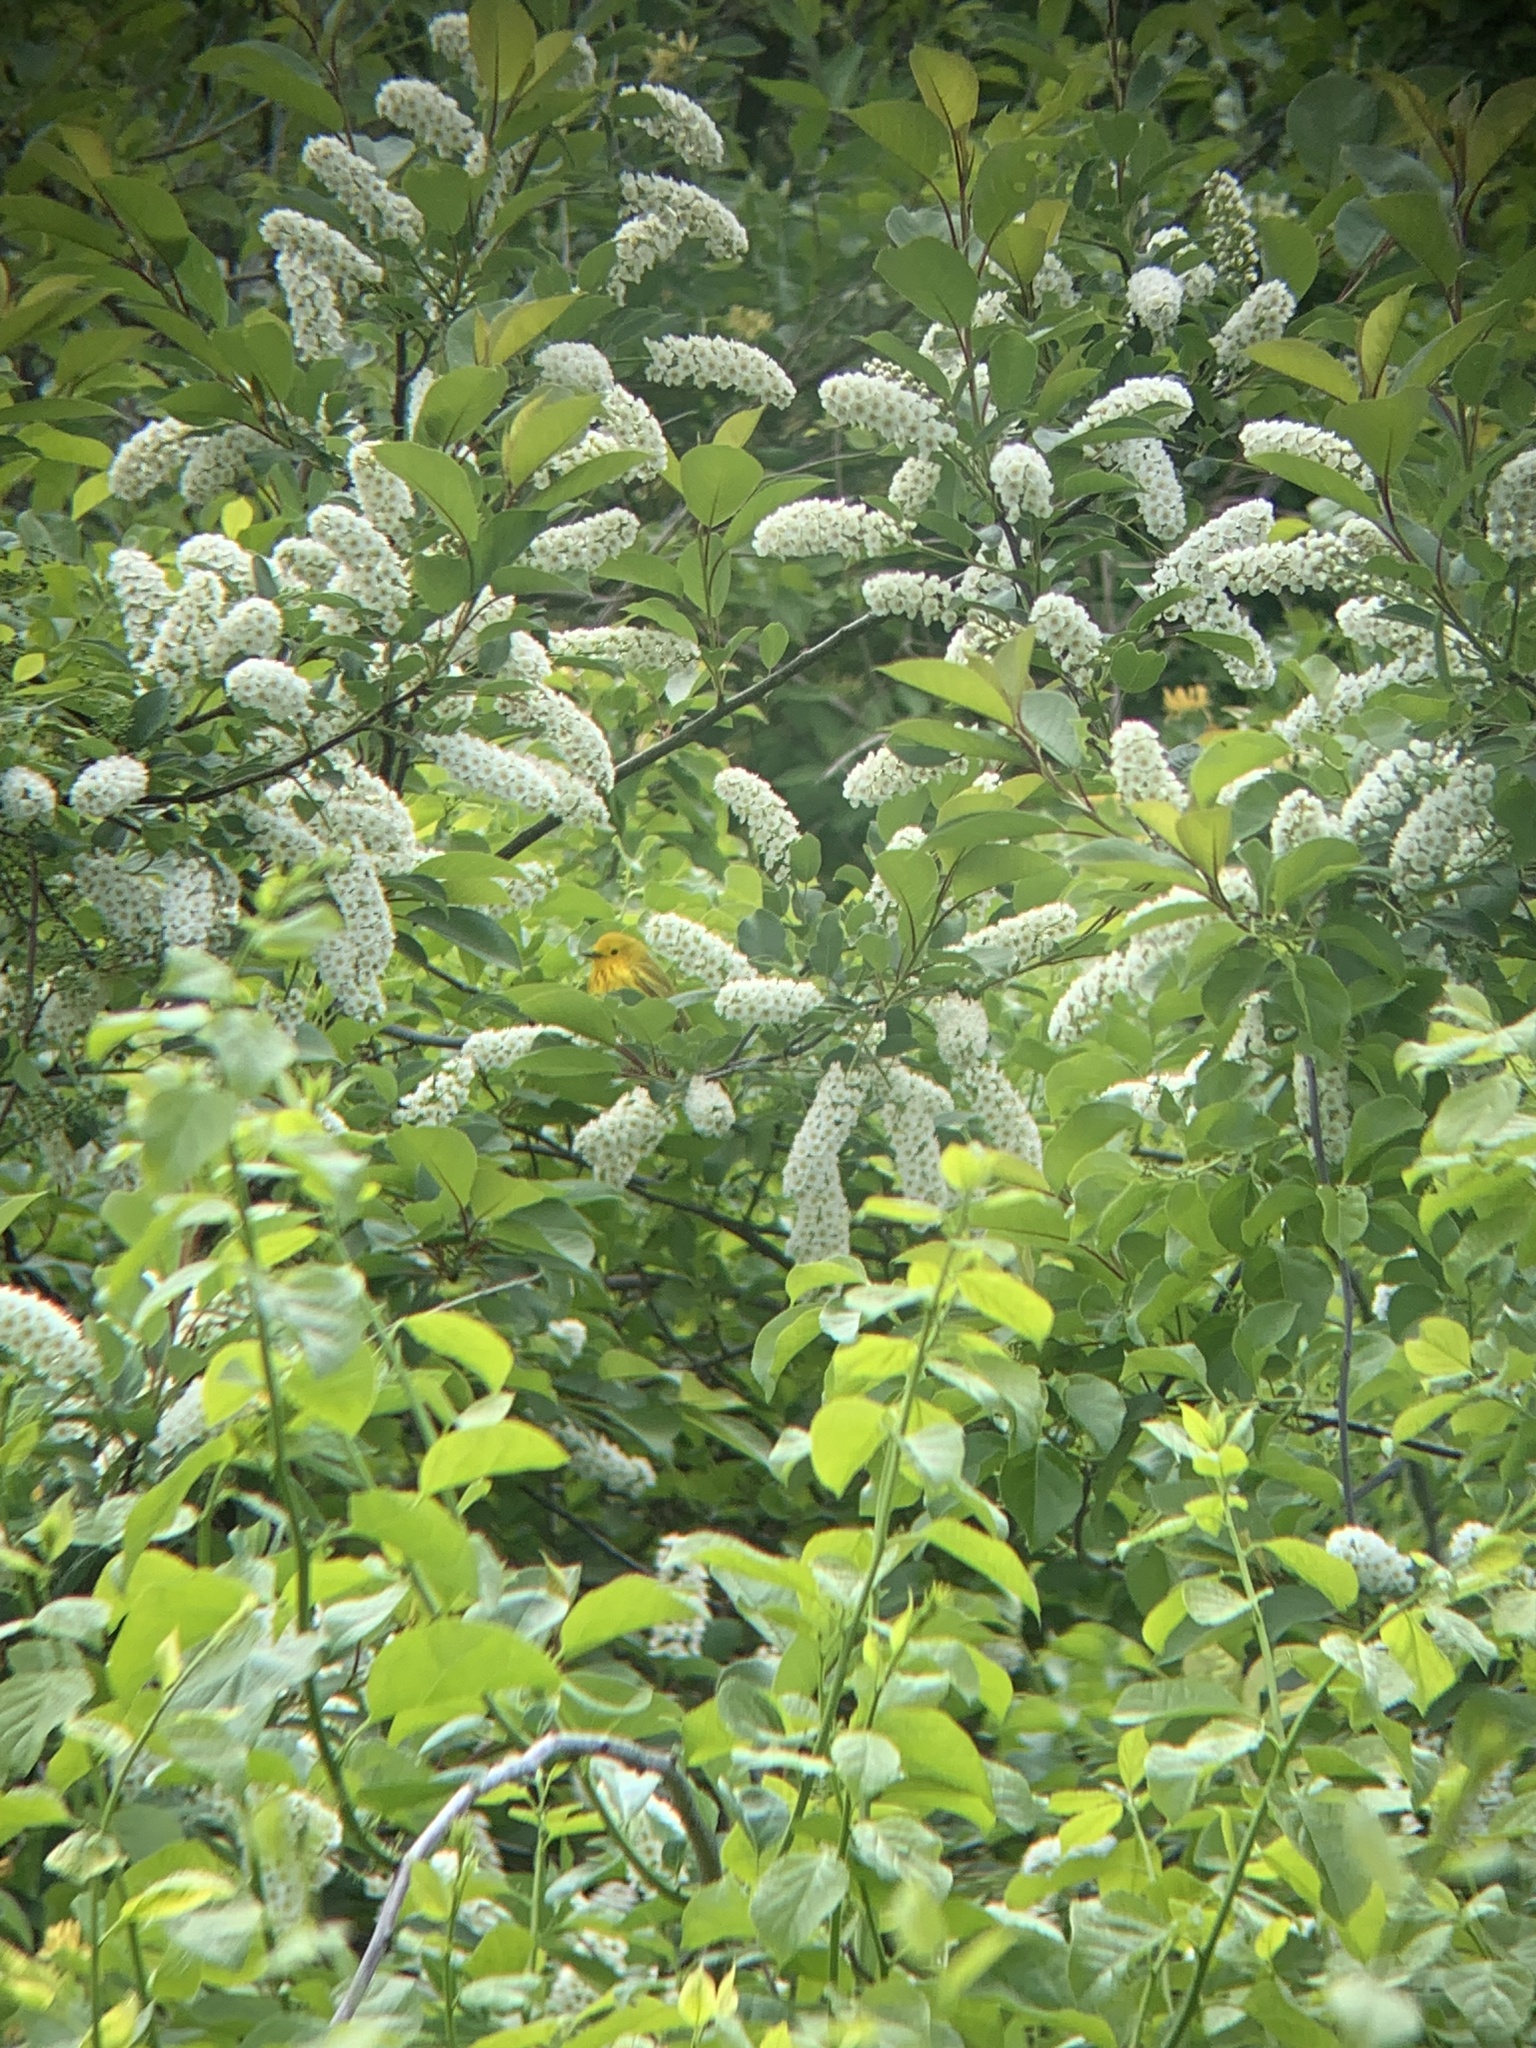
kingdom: Animalia
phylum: Chordata
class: Aves
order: Passeriformes
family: Parulidae
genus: Setophaga
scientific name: Setophaga petechia
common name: Yellow warbler
